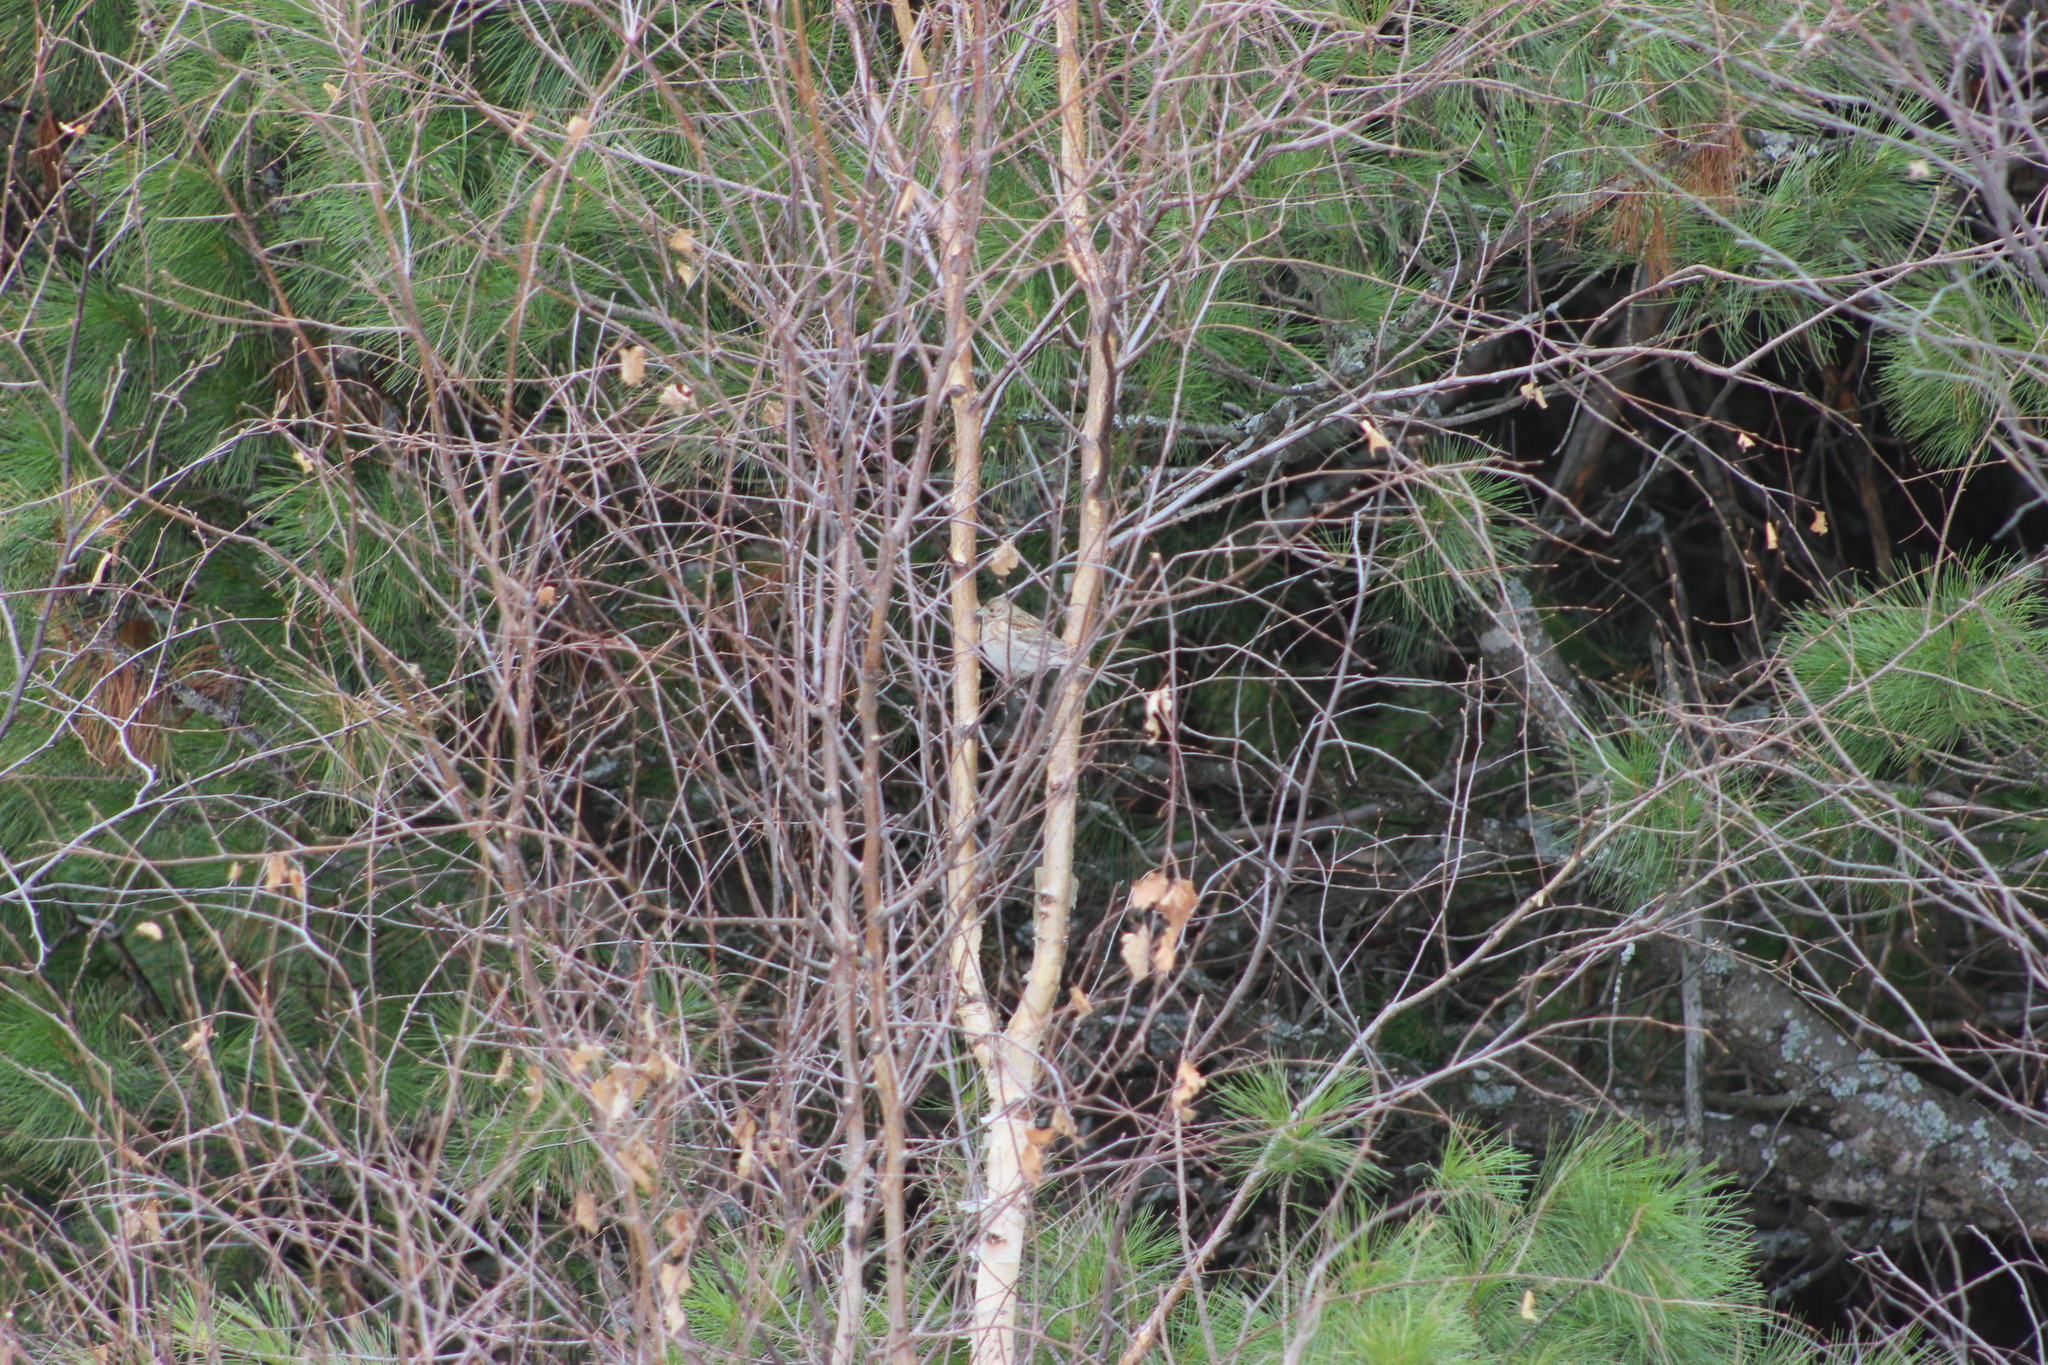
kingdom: Animalia
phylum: Chordata
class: Aves
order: Passeriformes
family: Emberizidae
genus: Emberiza
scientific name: Emberiza leucocephalos
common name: Pine bunting
